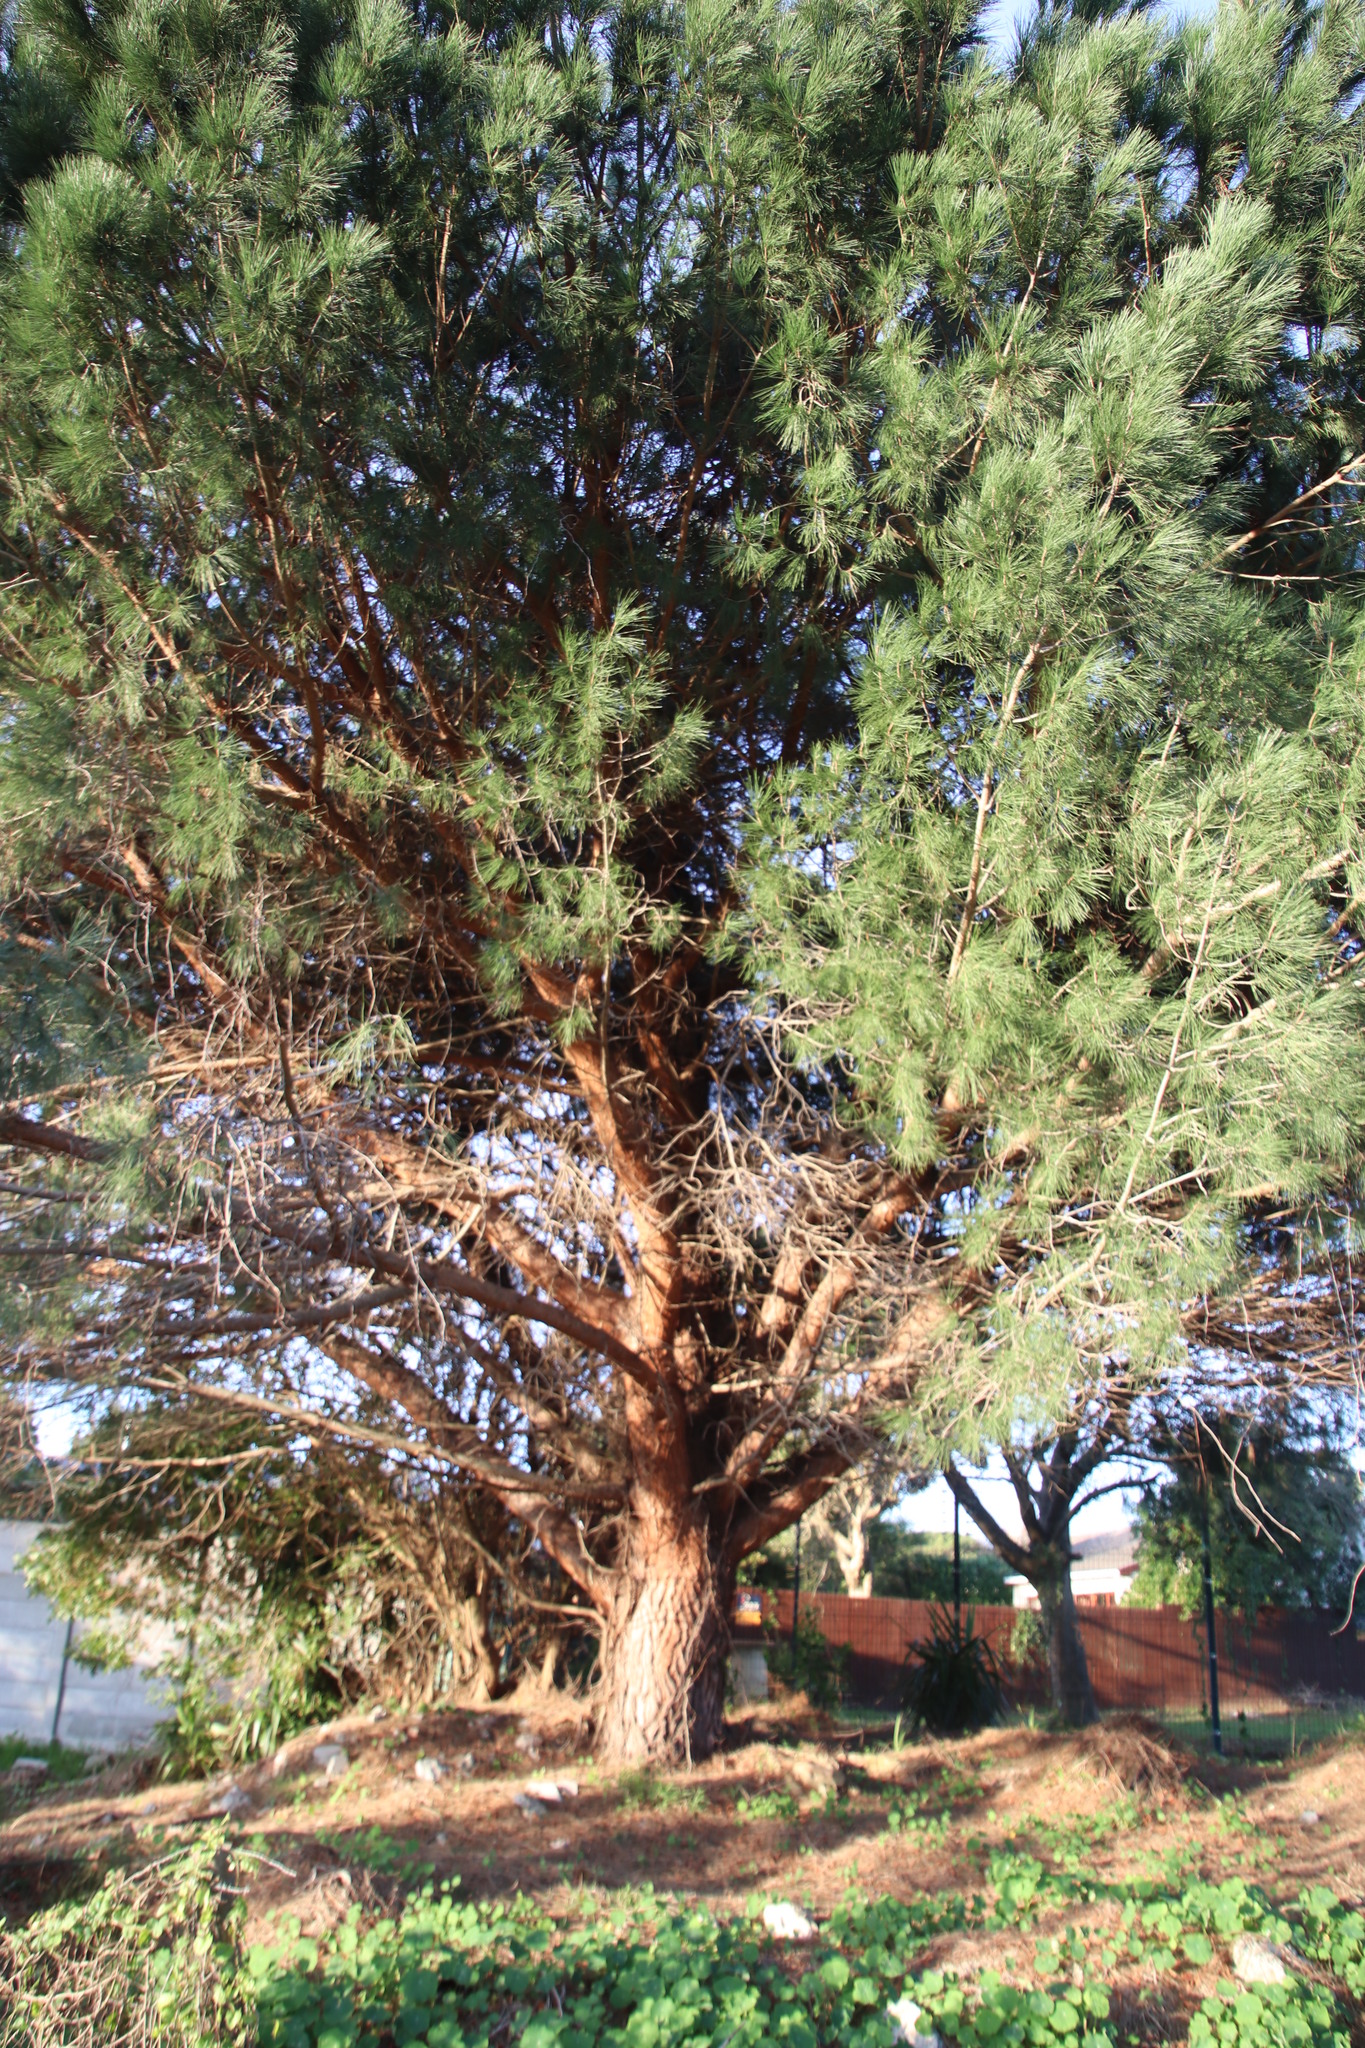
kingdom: Plantae
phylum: Tracheophyta
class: Pinopsida
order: Pinales
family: Pinaceae
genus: Pinus
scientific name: Pinus pinea
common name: Italian stone pine
